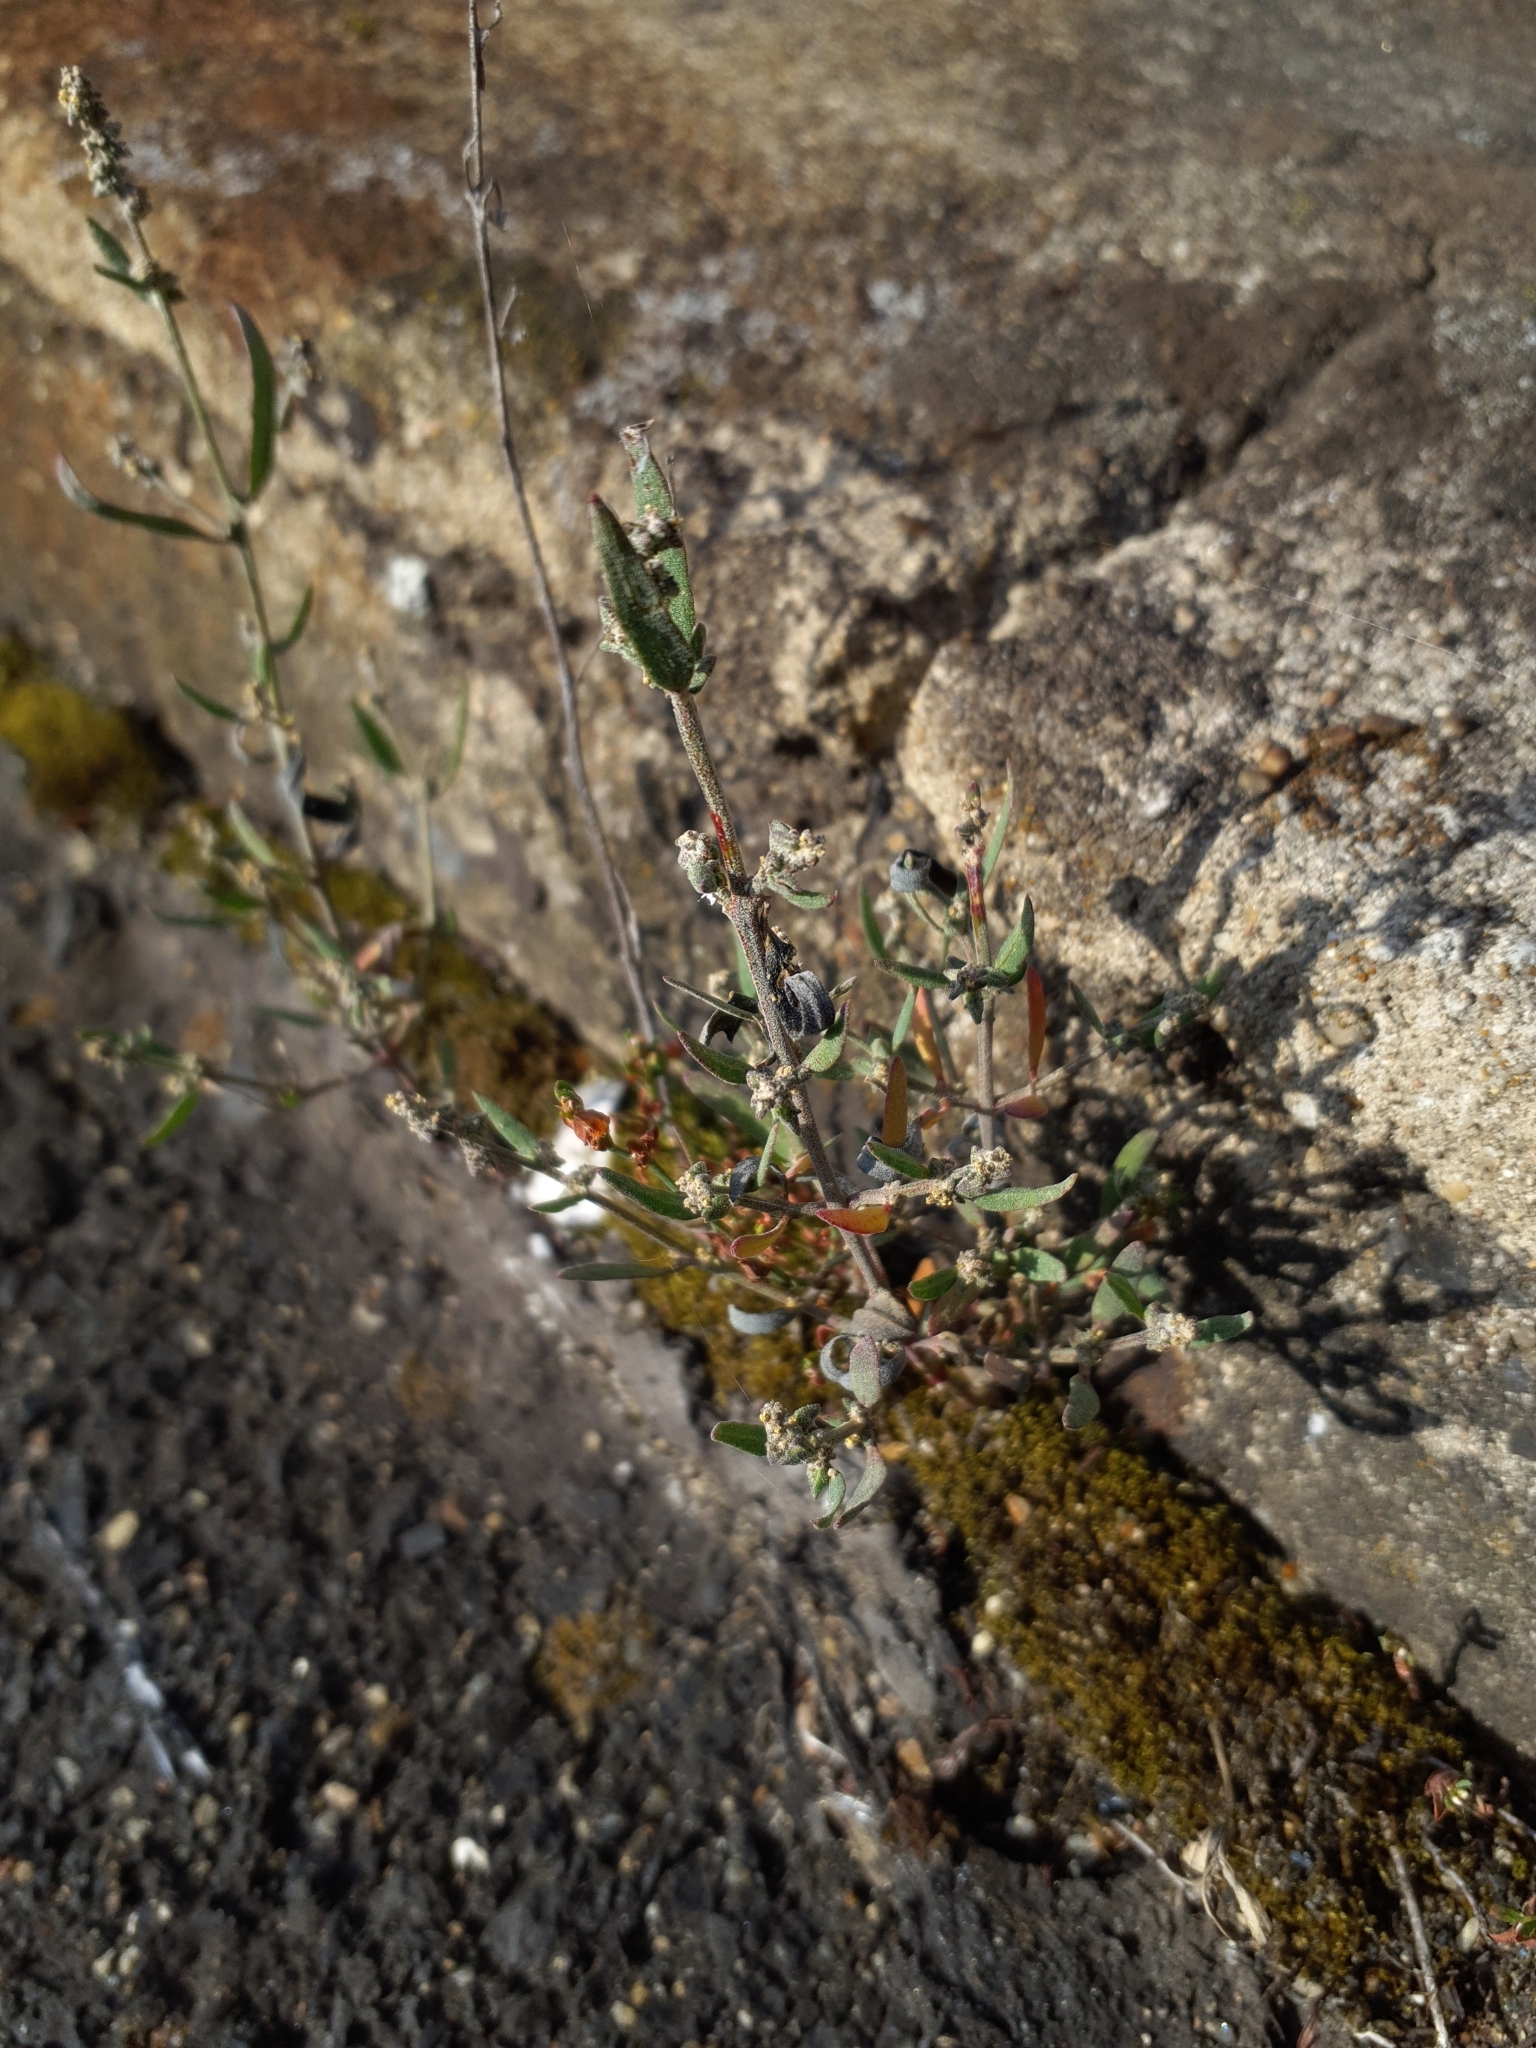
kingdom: Plantae
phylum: Tracheophyta
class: Magnoliopsida
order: Caryophyllales
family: Amaranthaceae
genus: Atriplex
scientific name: Atriplex patula
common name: Common orache
